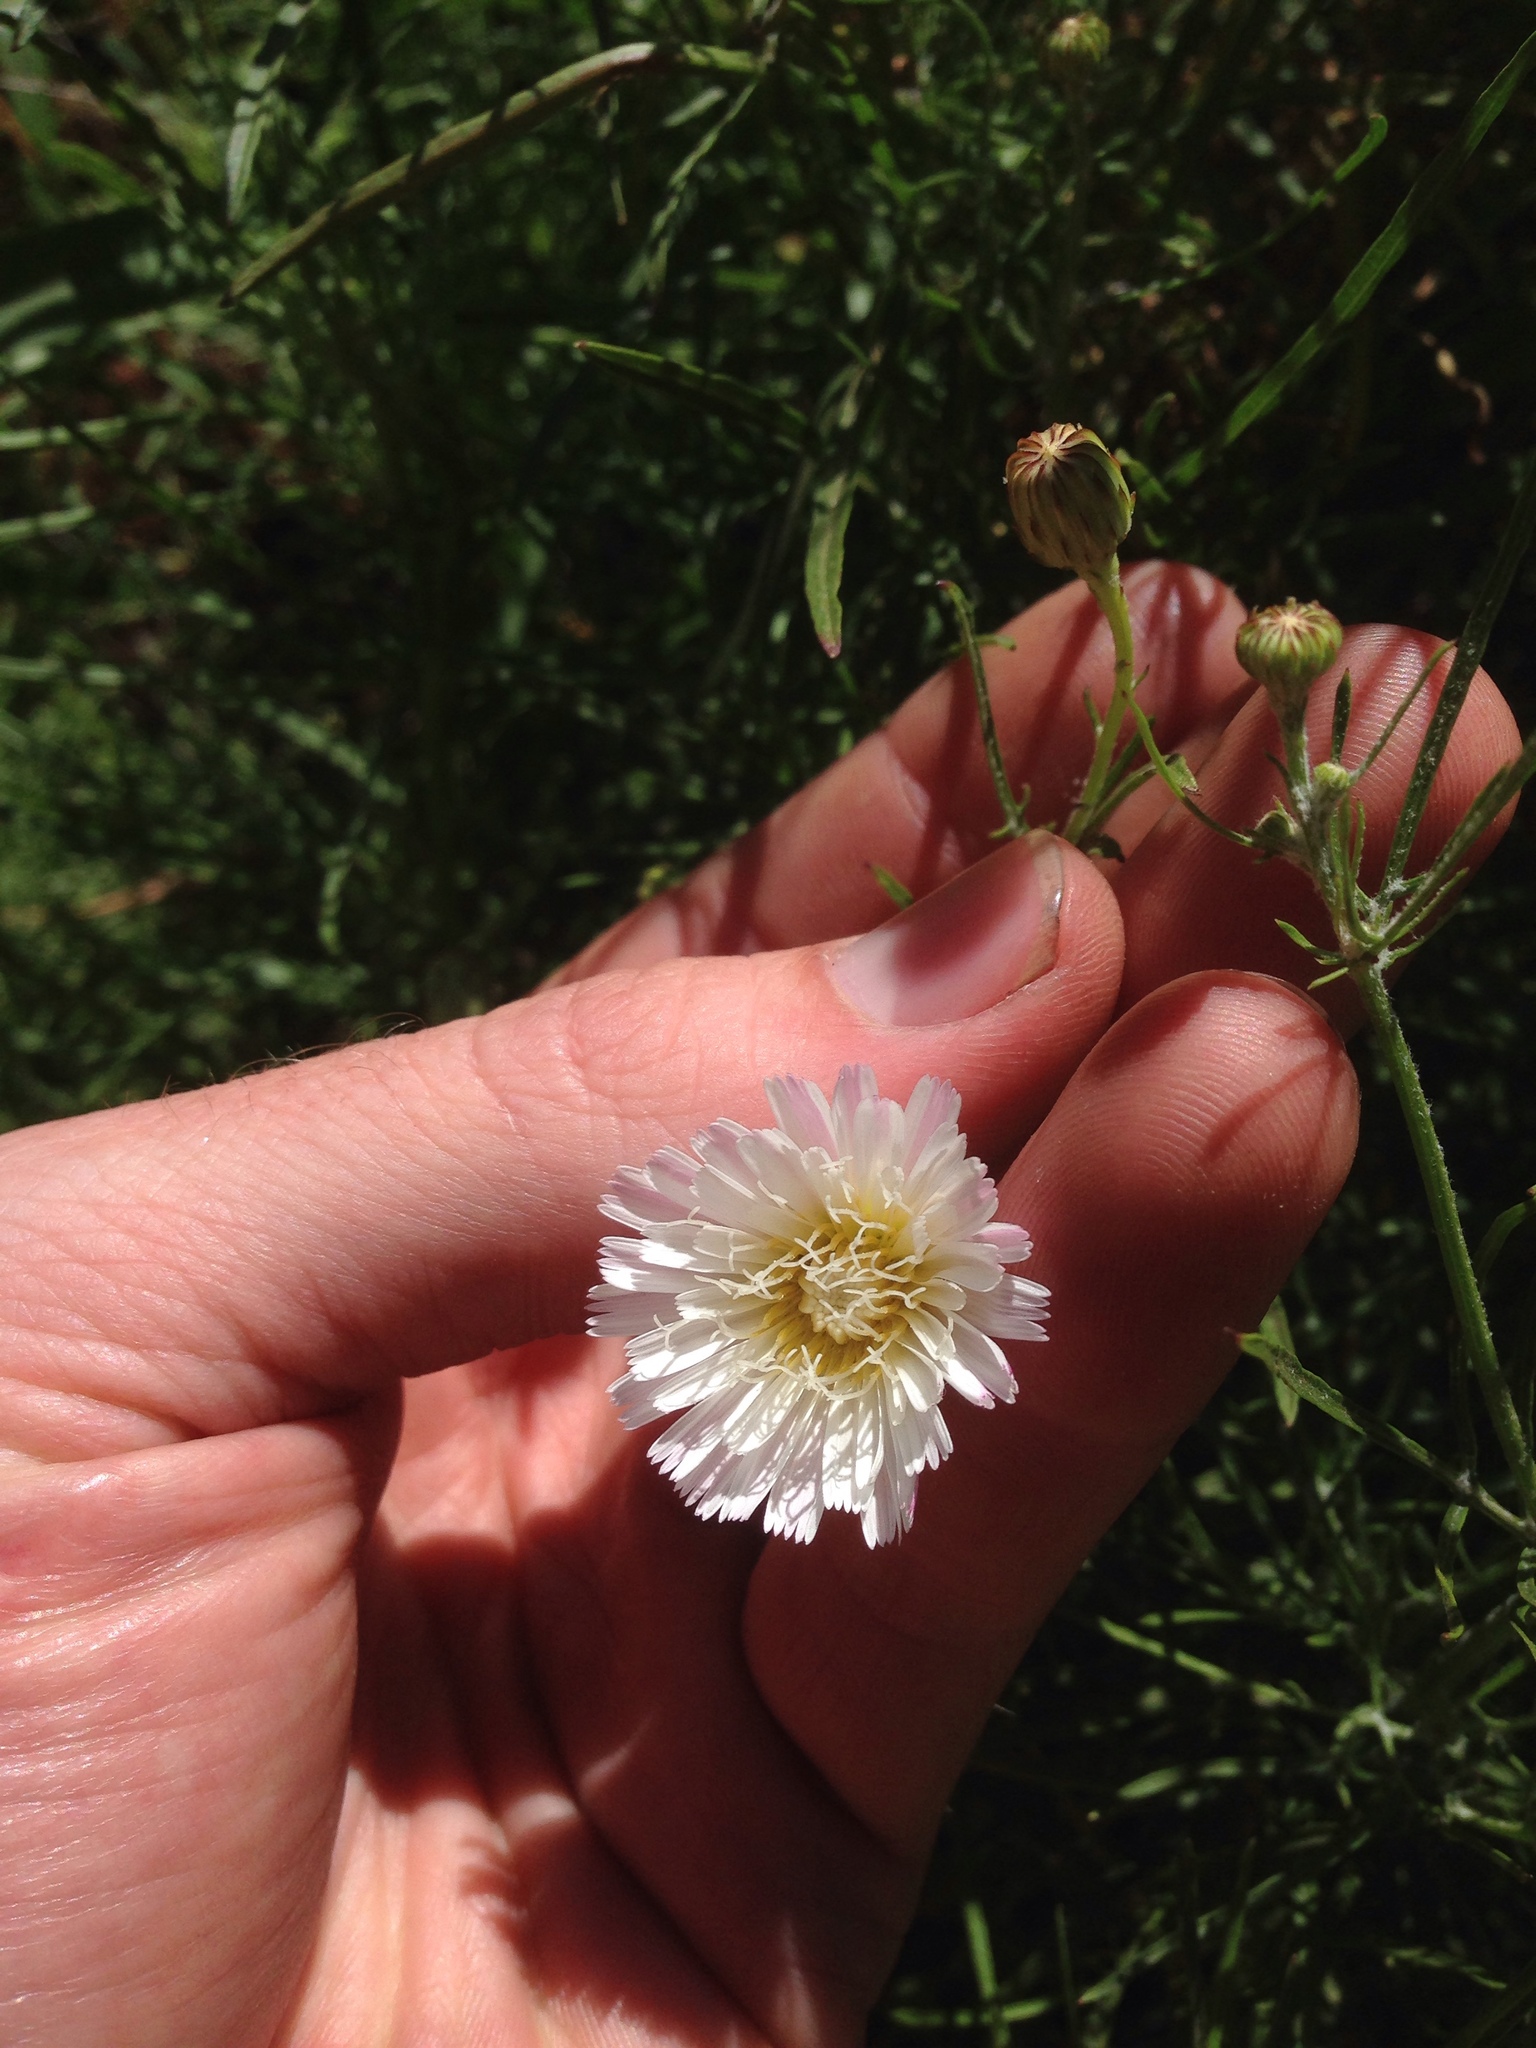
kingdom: Plantae
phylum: Tracheophyta
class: Magnoliopsida
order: Asterales
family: Asteraceae
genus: Malacothrix
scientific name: Malacothrix saxatilis
